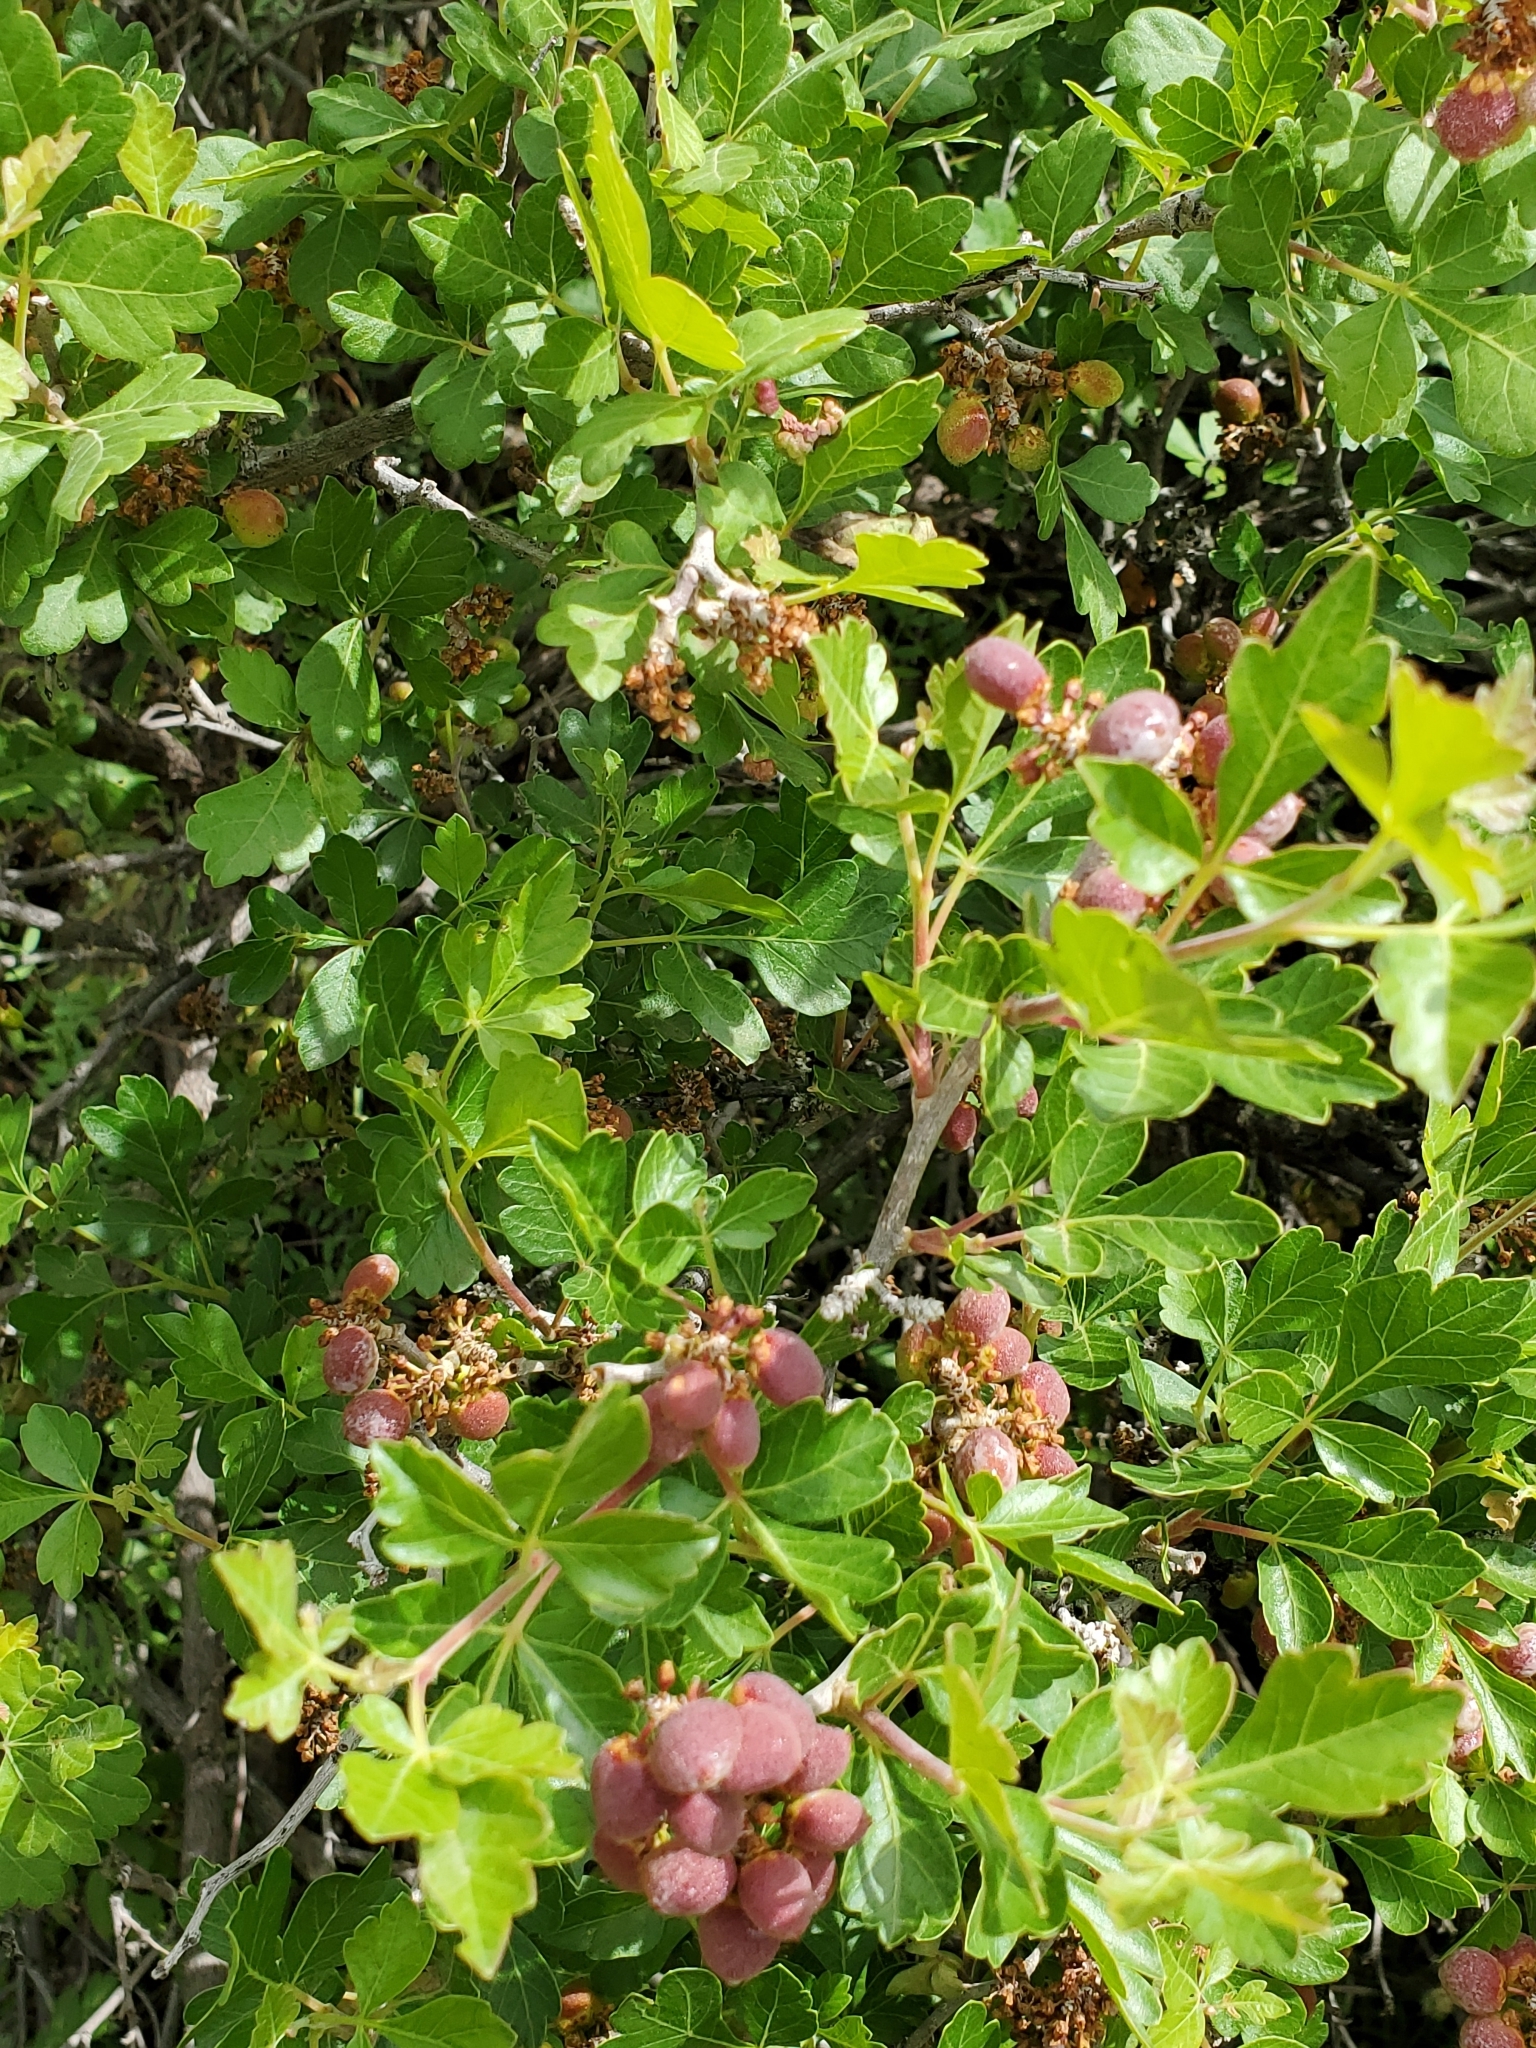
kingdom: Plantae
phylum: Tracheophyta
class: Magnoliopsida
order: Sapindales
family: Anacardiaceae
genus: Rhus
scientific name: Rhus aromatica
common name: Aromatic sumac
